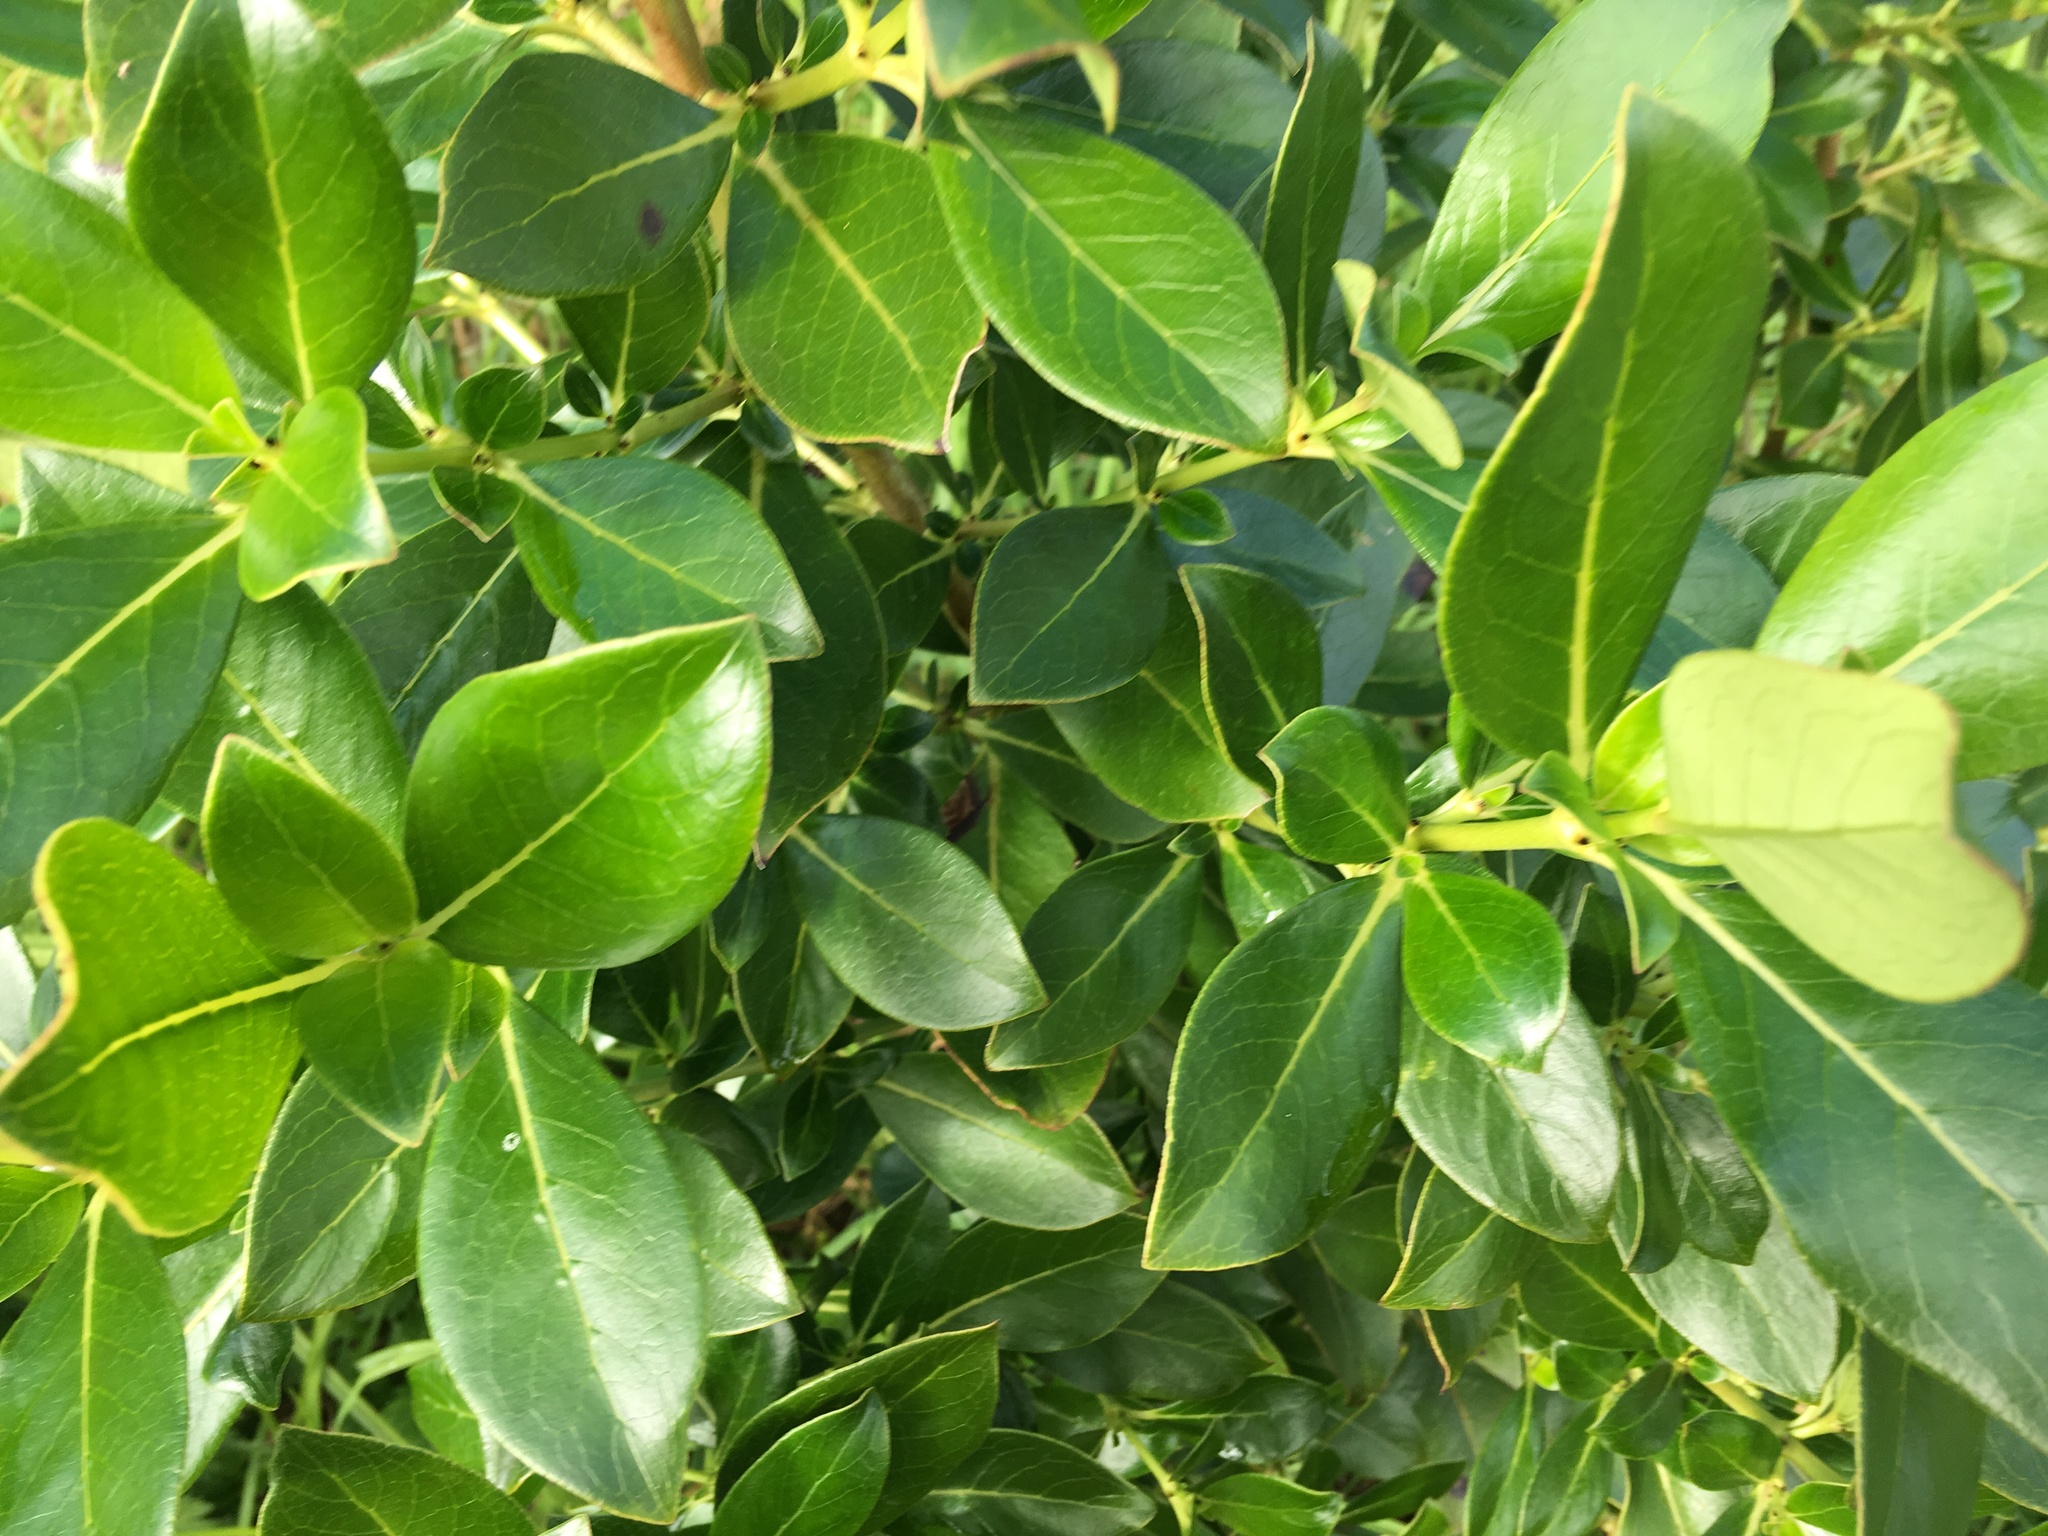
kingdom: Plantae
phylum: Tracheophyta
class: Magnoliopsida
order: Gentianales
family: Rubiaceae
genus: Coprosma
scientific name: Coprosma robusta
